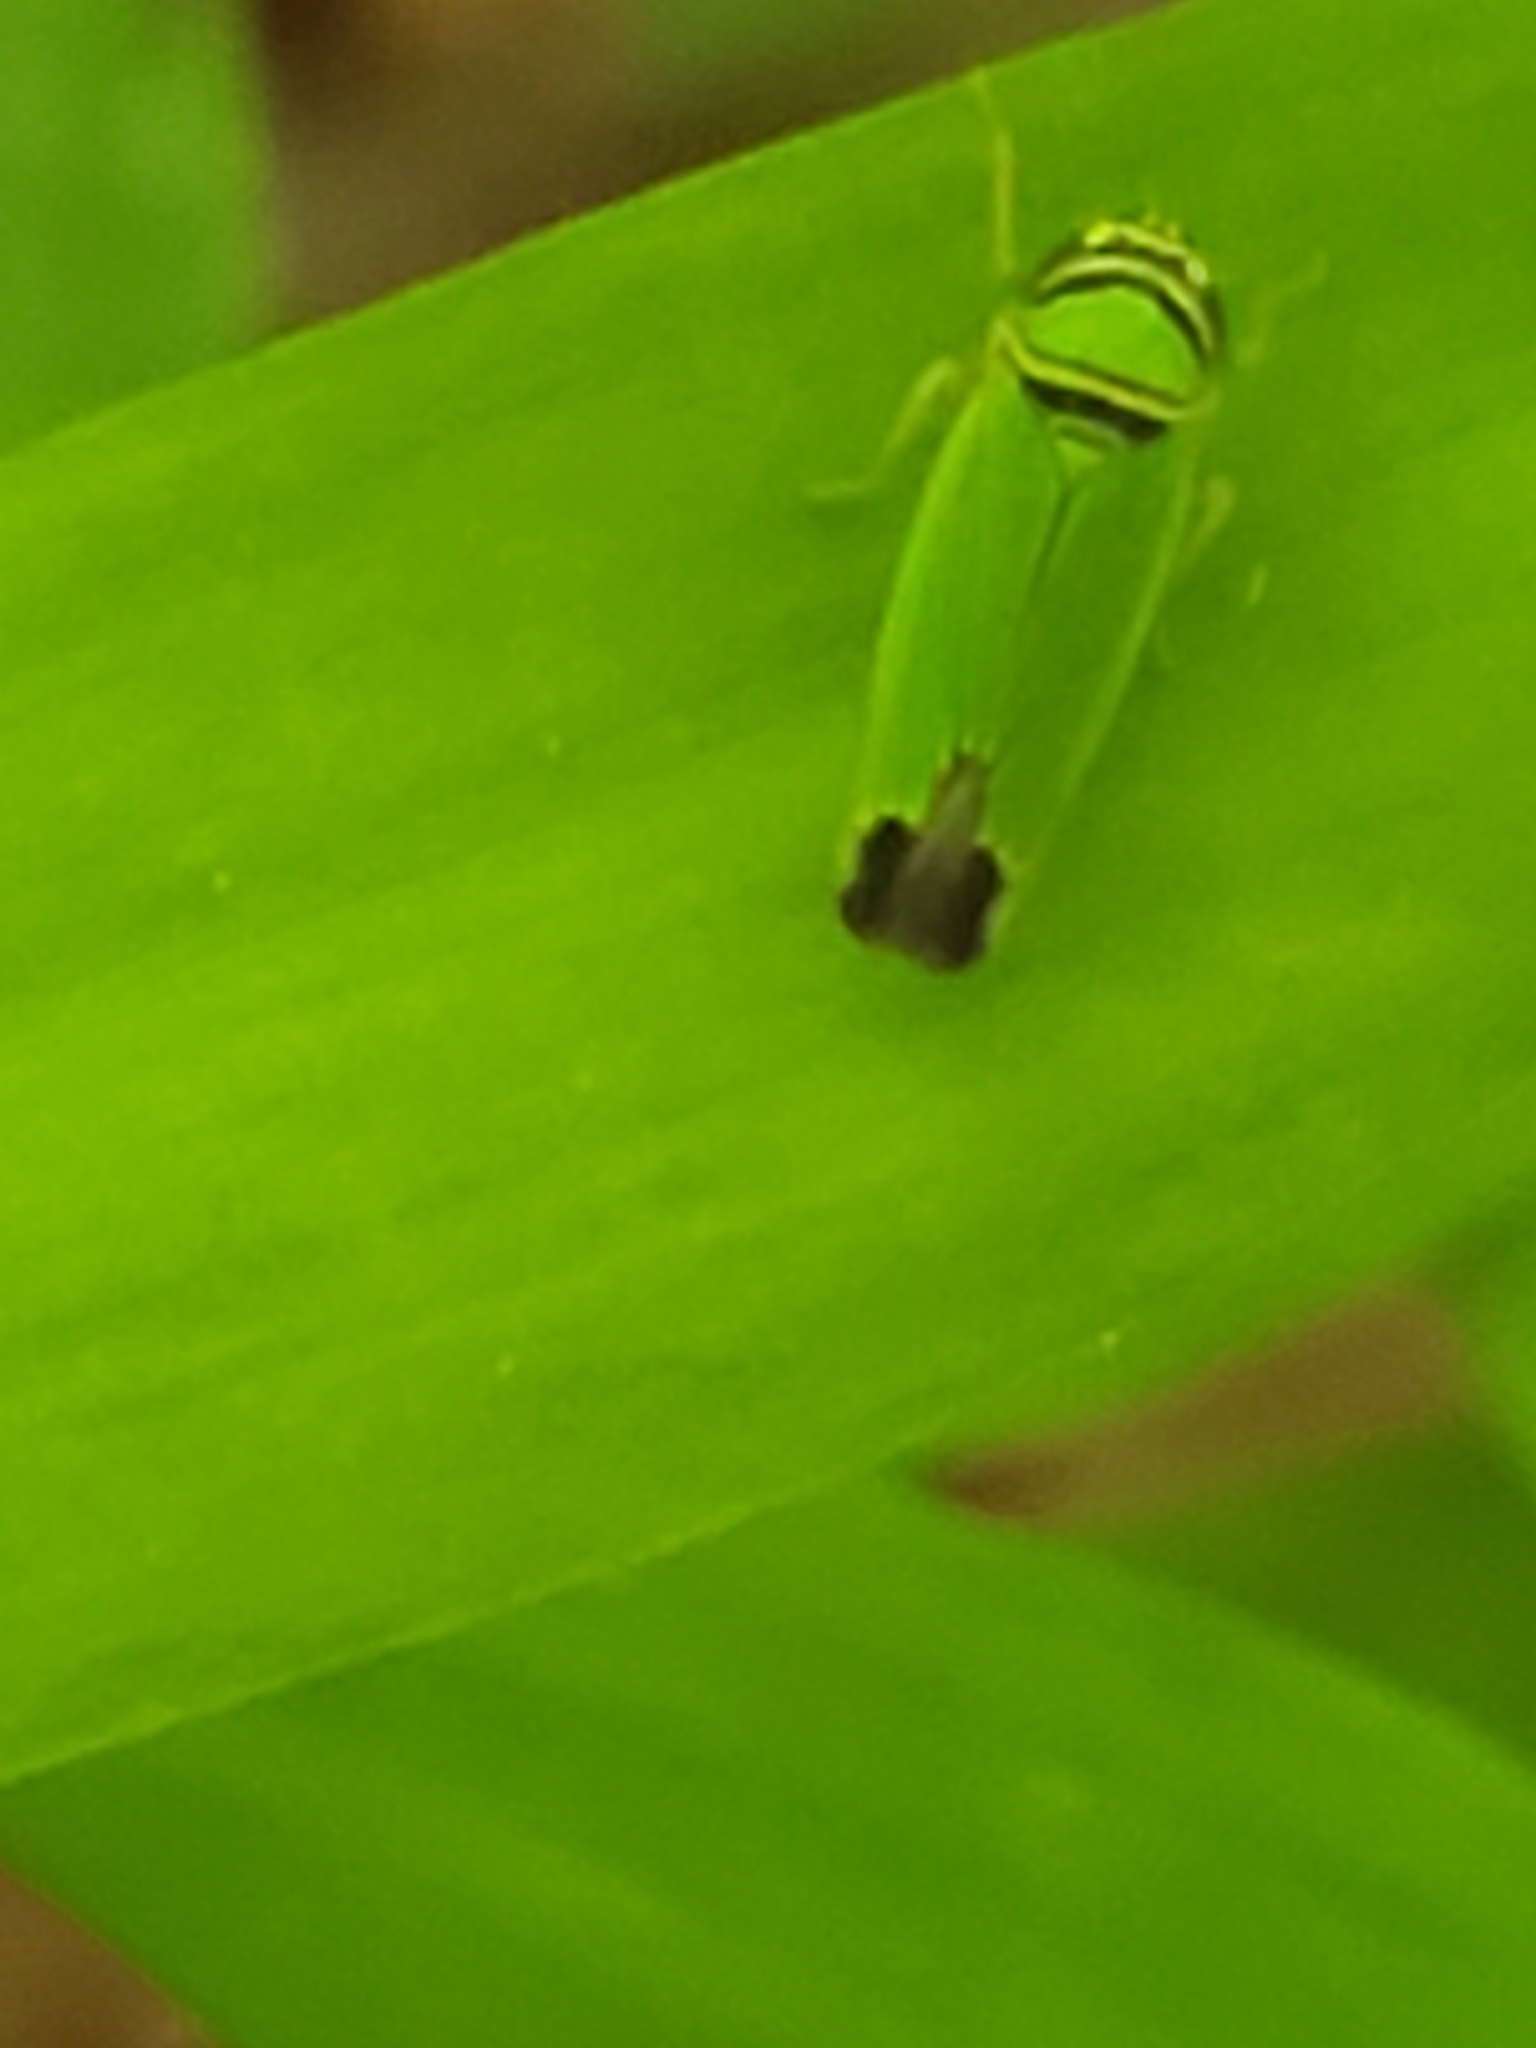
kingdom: Animalia
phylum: Arthropoda
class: Insecta
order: Hemiptera
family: Cicadellidae
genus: Tylozygus
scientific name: Tylozygus geometricus
